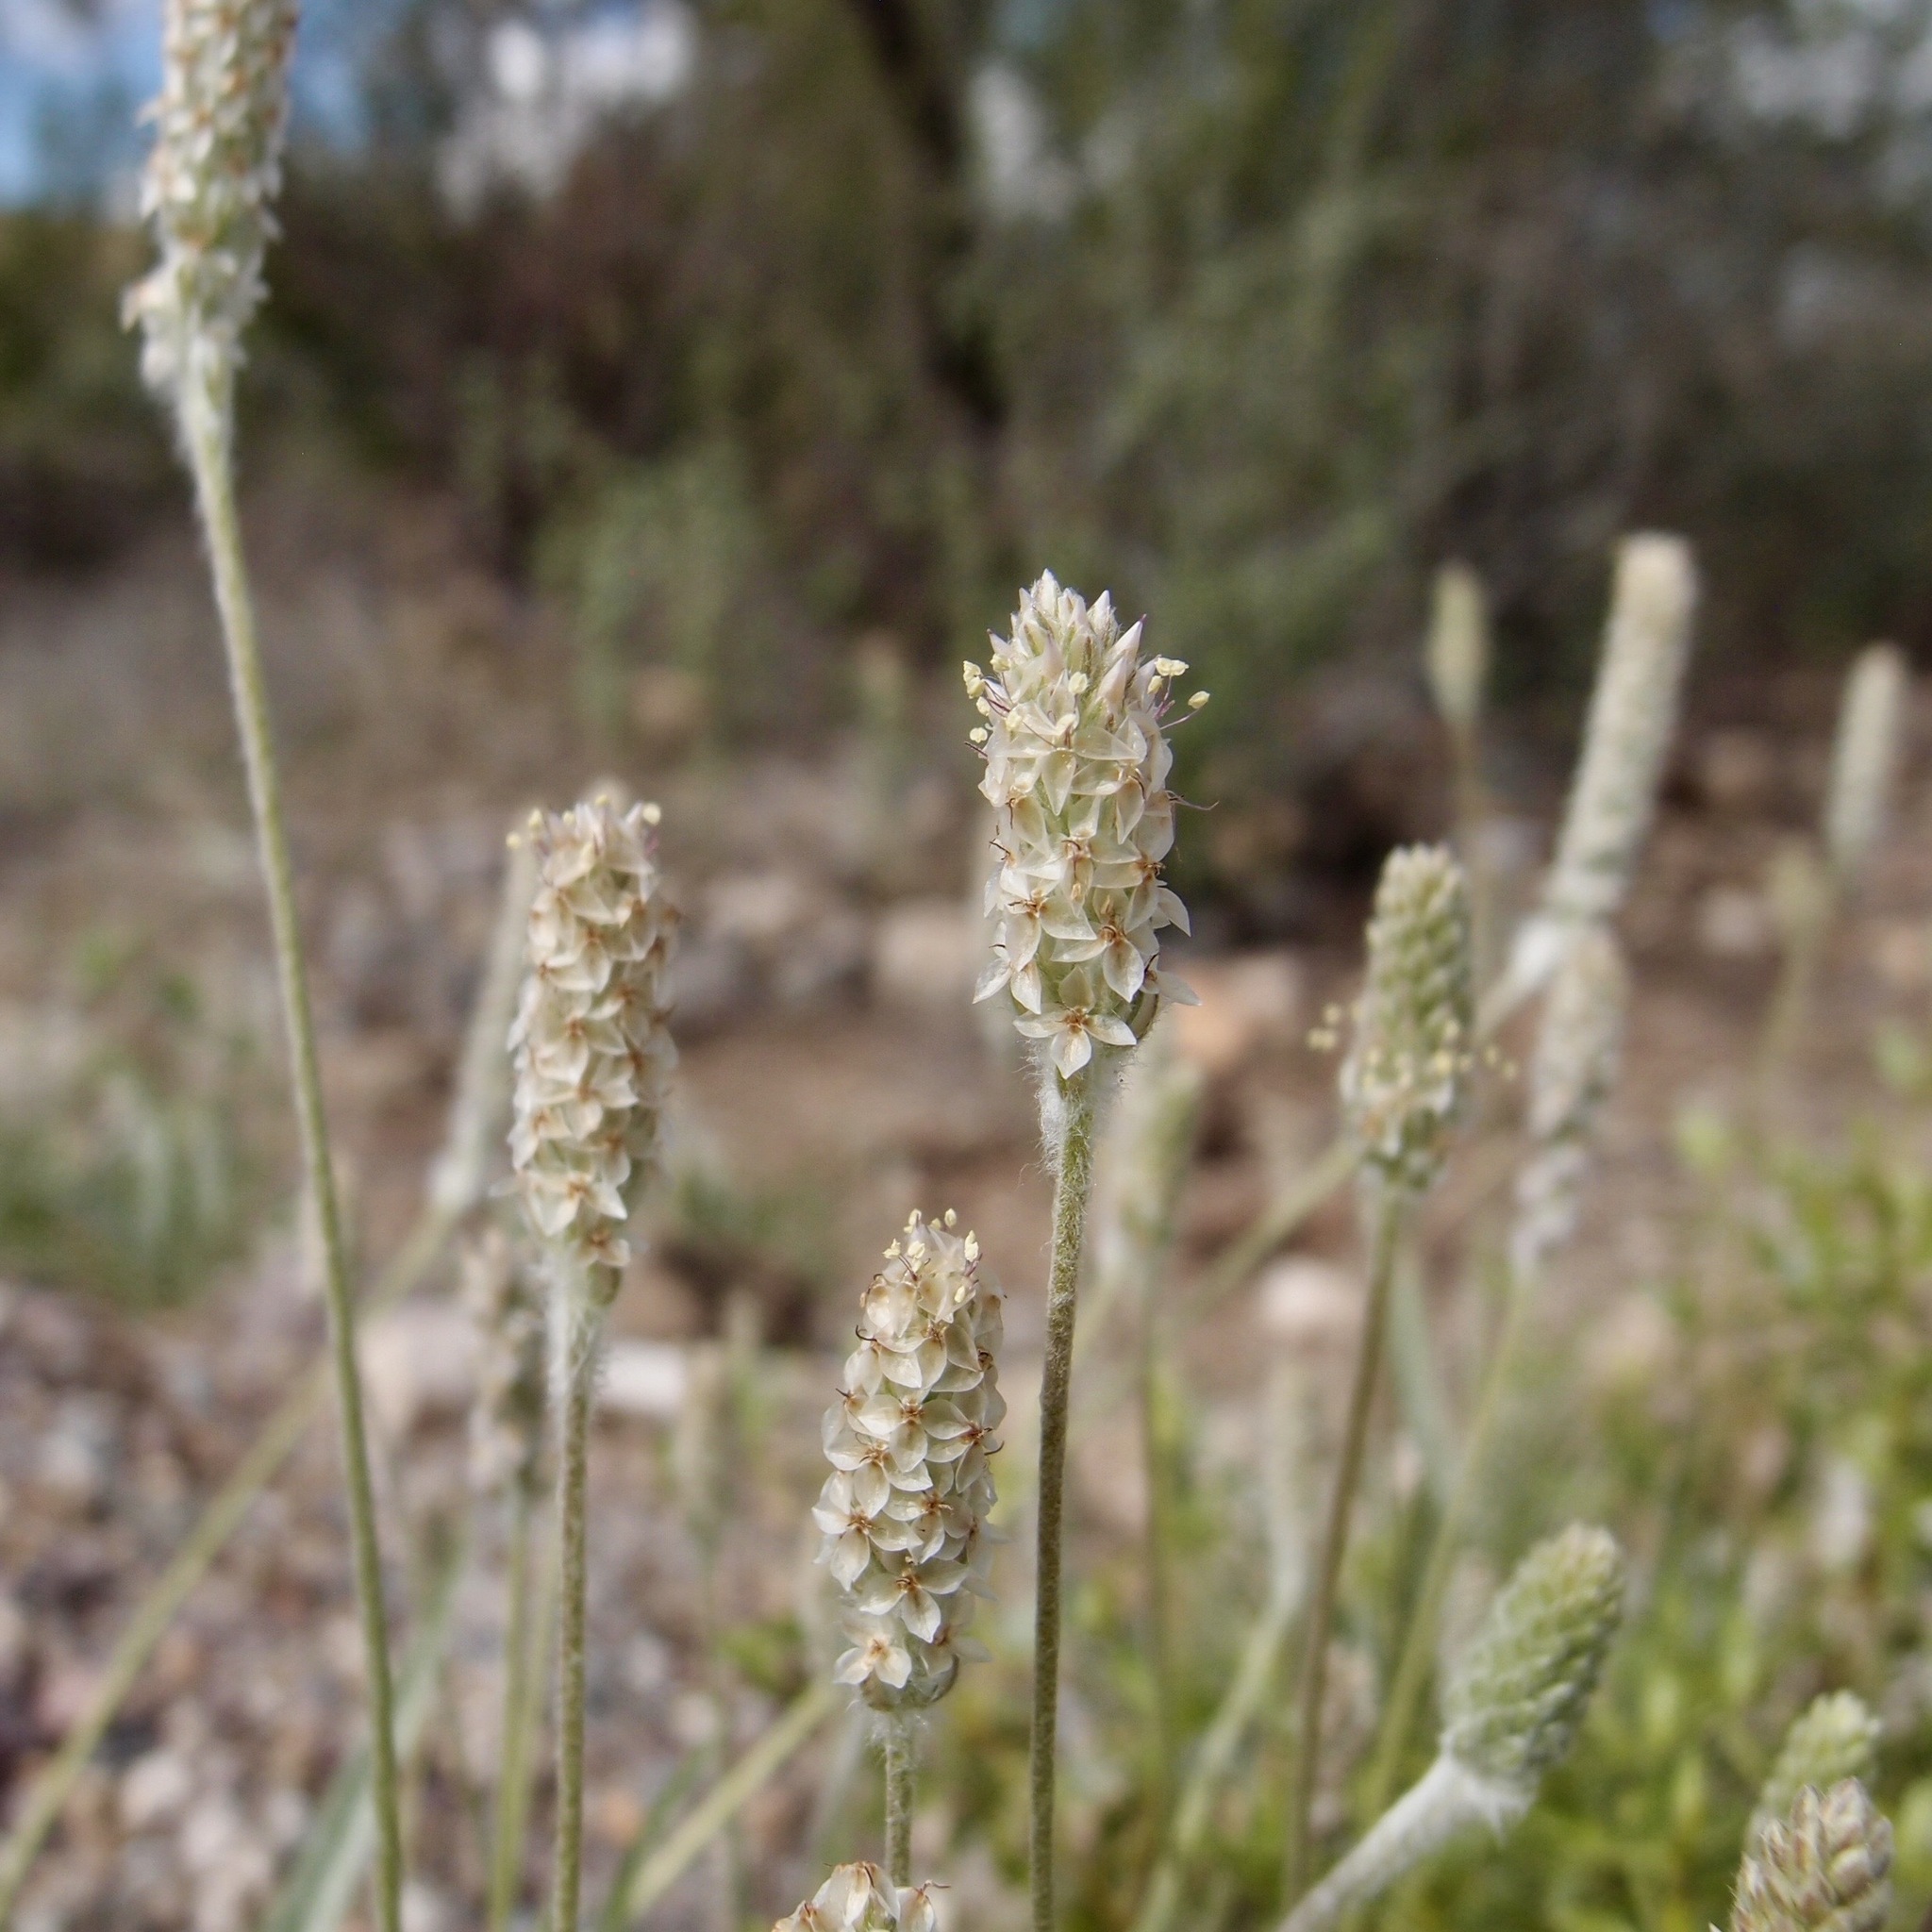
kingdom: Plantae
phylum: Tracheophyta
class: Magnoliopsida
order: Lamiales
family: Plantaginaceae
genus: Plantago
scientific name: Plantago ovata
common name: Blond plantain
